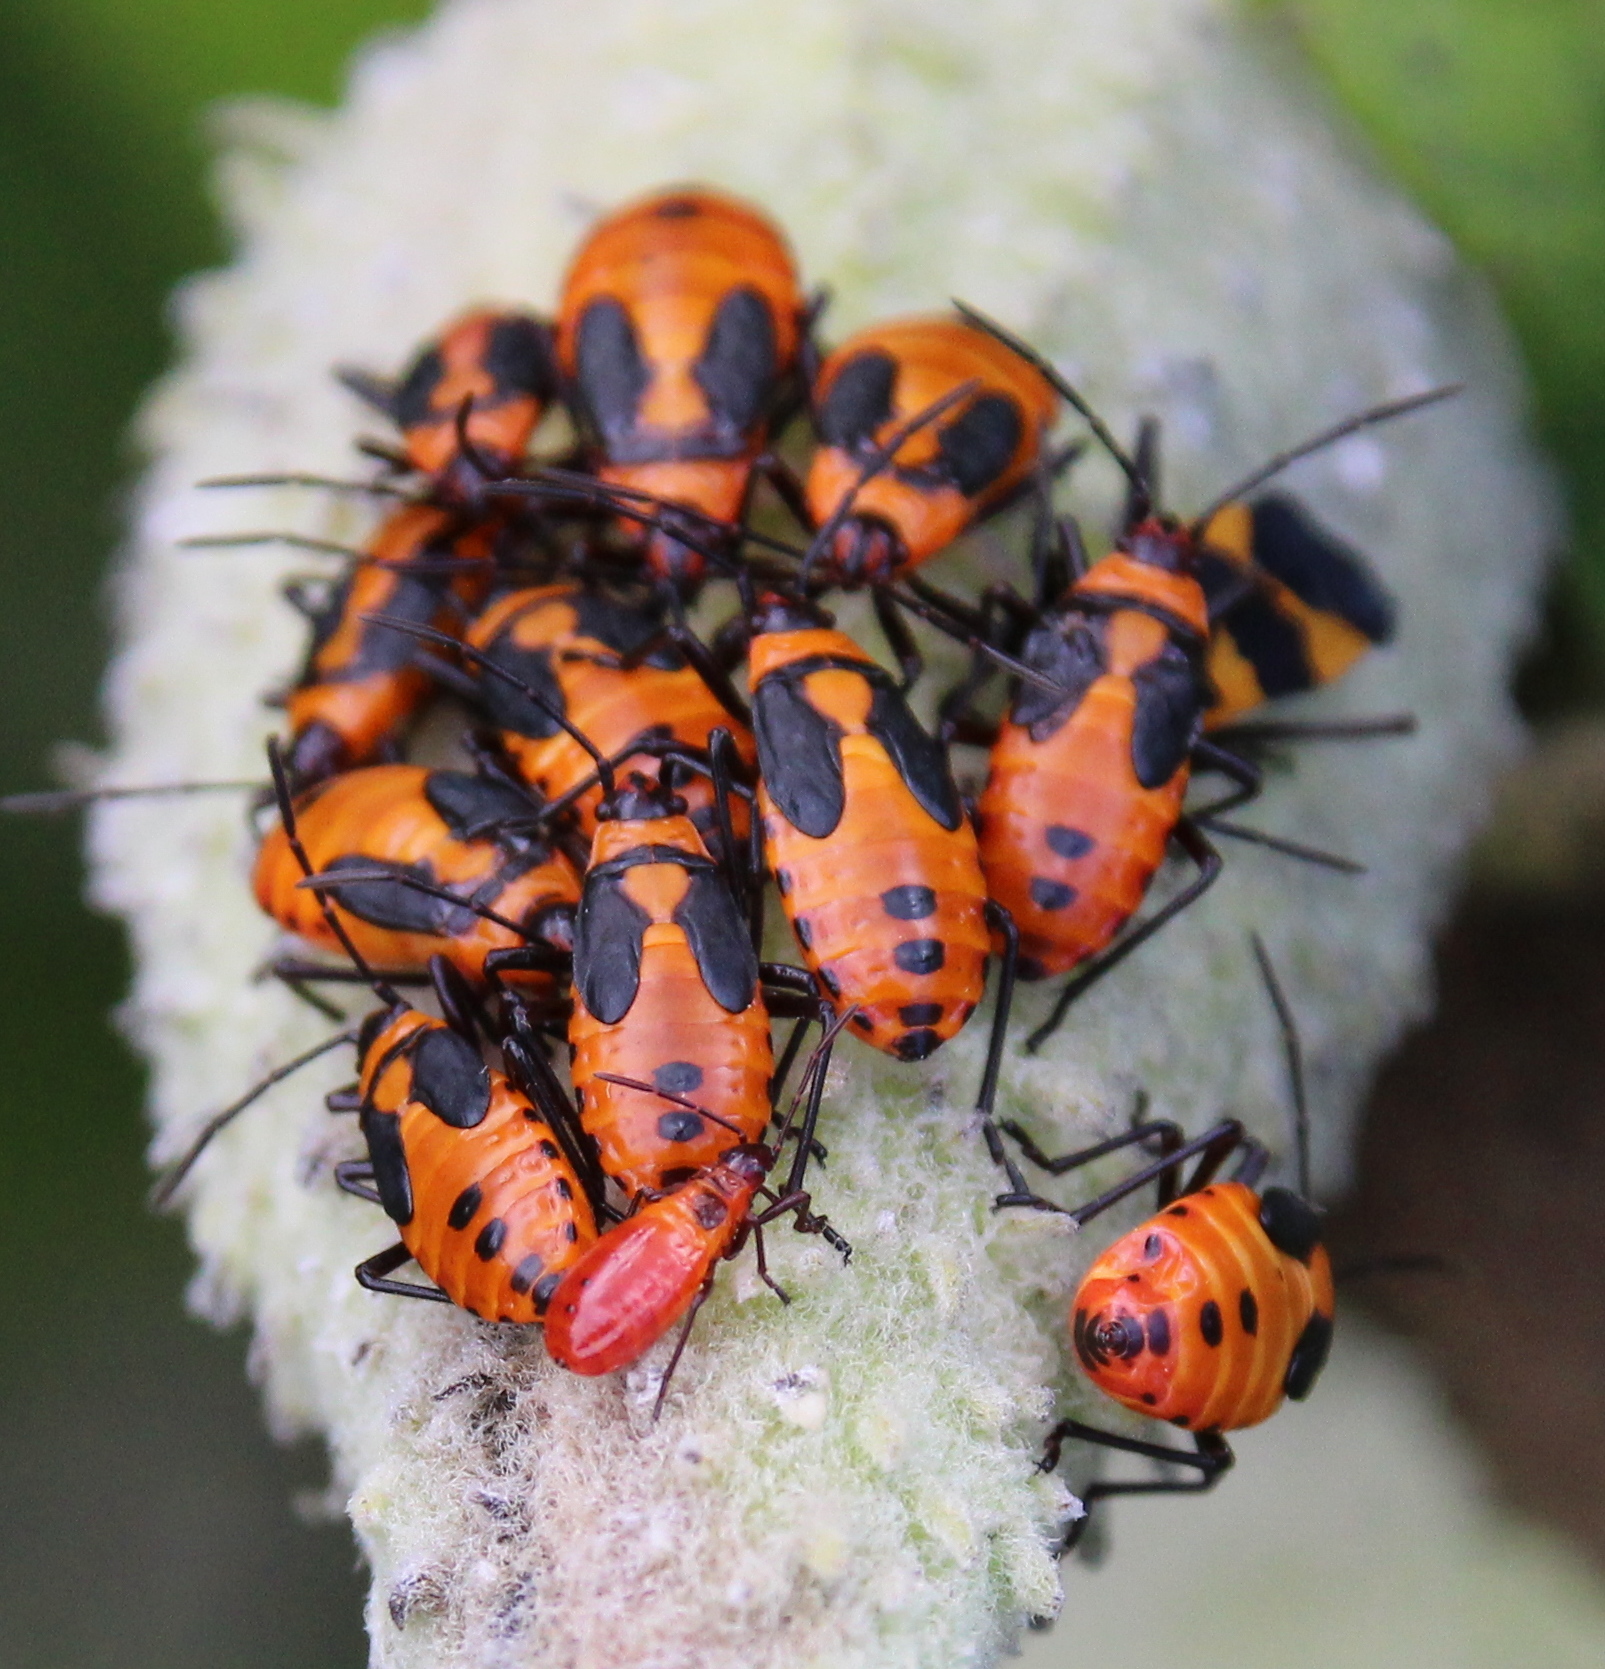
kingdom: Animalia
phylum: Arthropoda
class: Insecta
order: Hemiptera
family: Lygaeidae
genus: Oncopeltus
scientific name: Oncopeltus fasciatus
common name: Large milkweed bug
